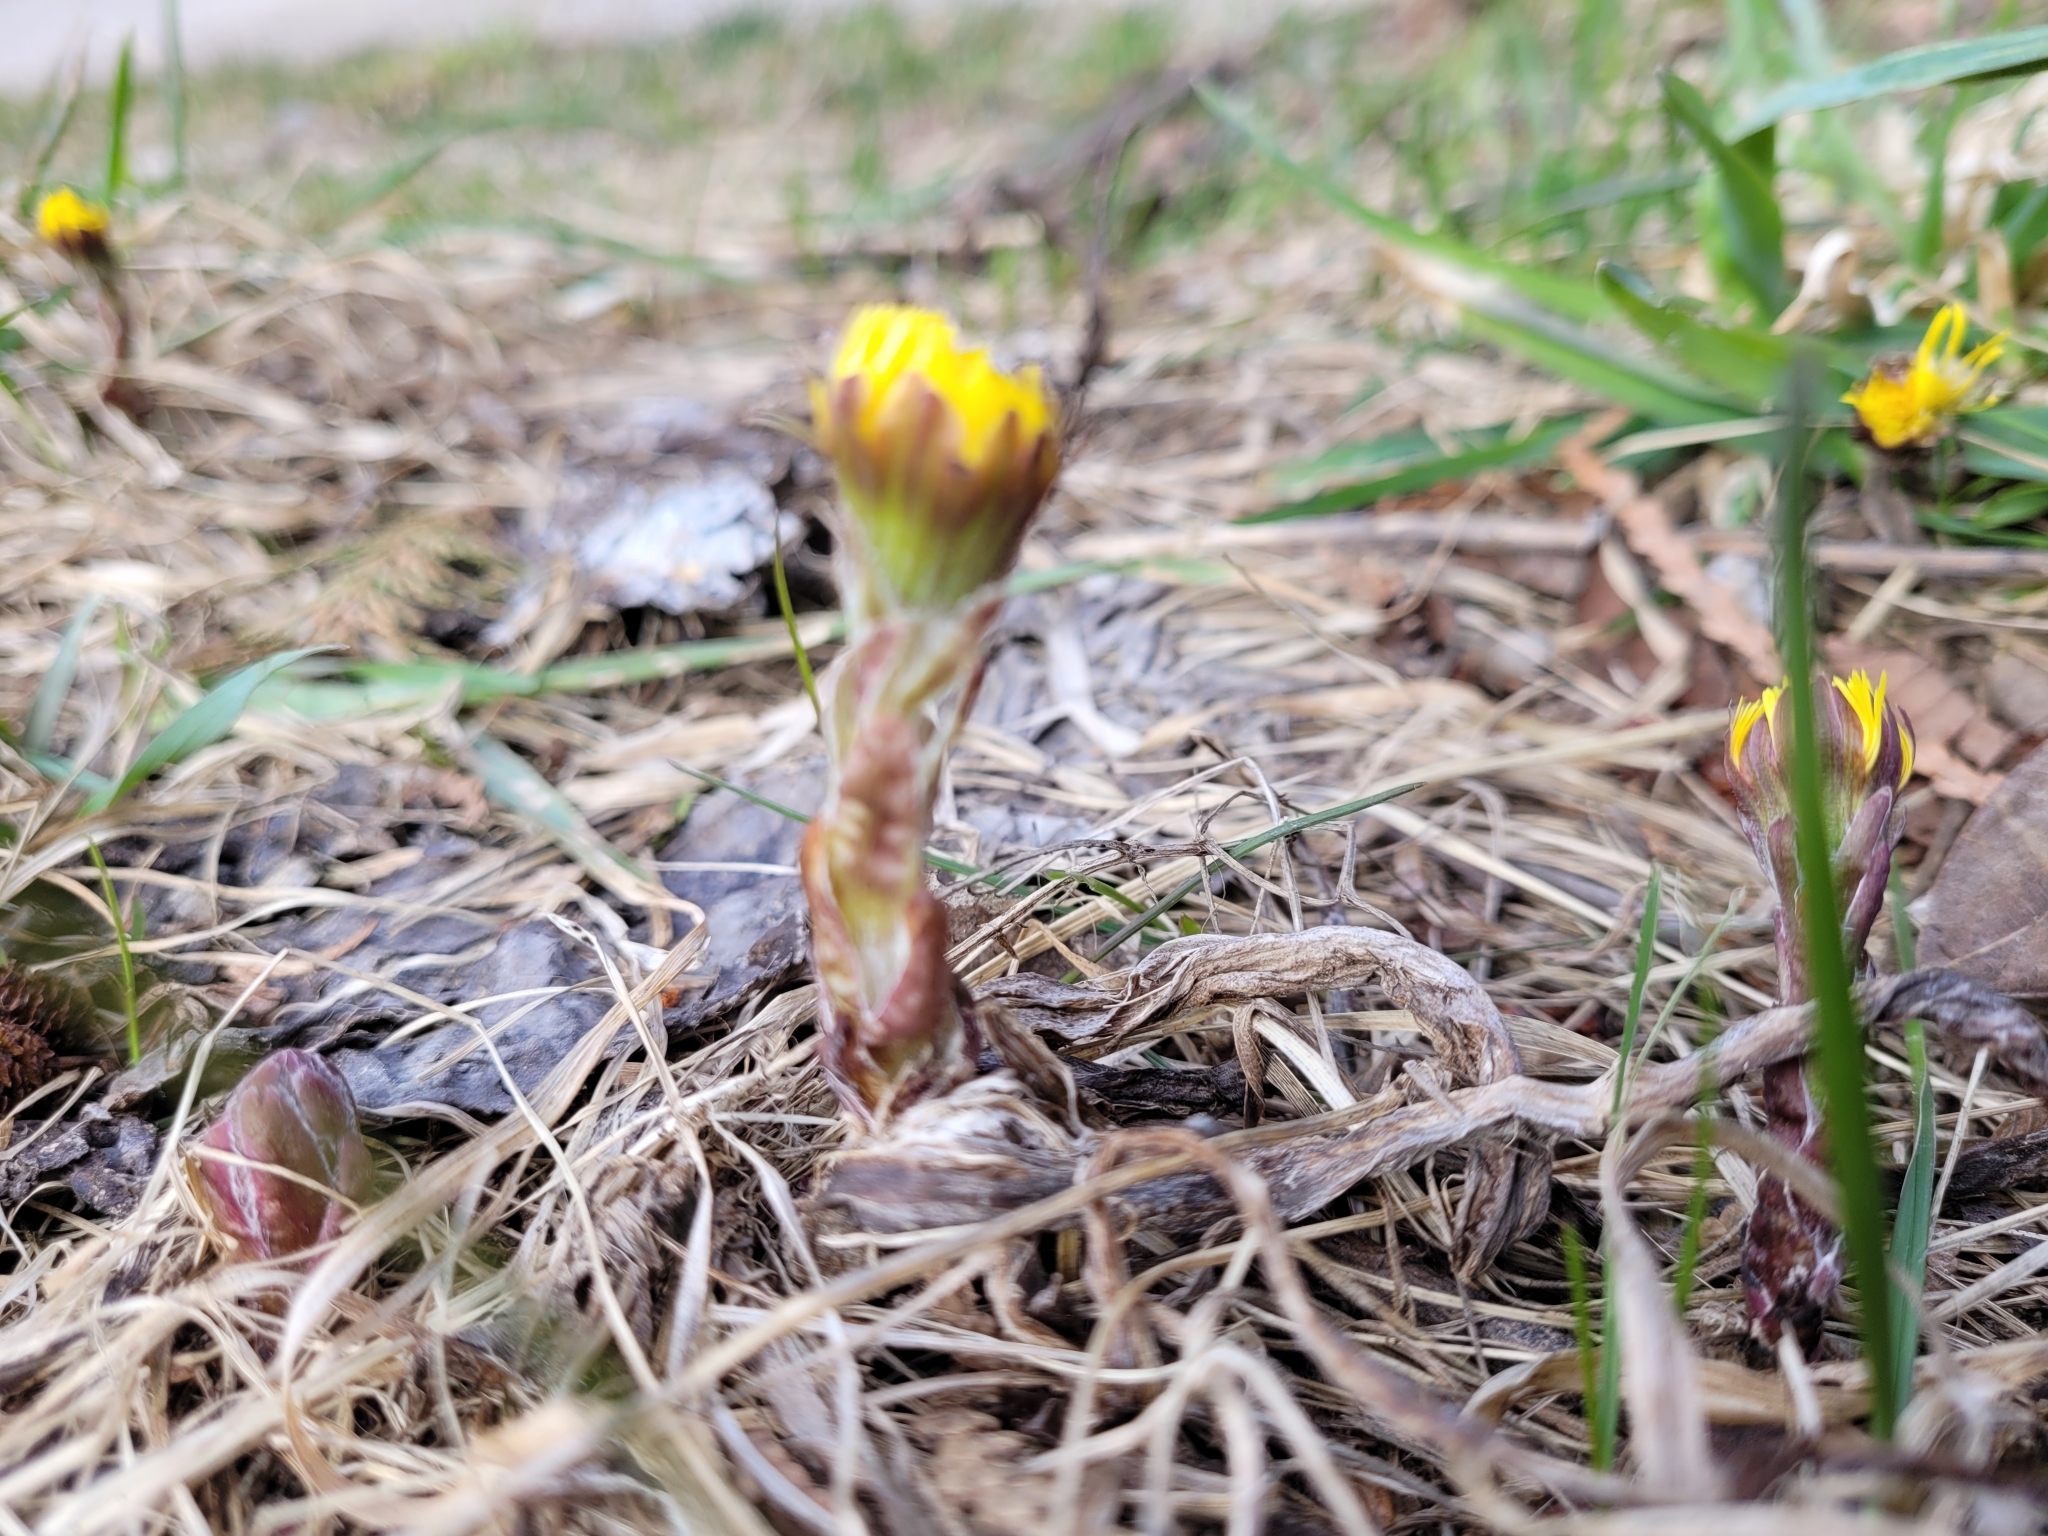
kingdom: Plantae
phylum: Tracheophyta
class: Magnoliopsida
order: Asterales
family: Asteraceae
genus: Tussilago
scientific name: Tussilago farfara
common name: Coltsfoot
